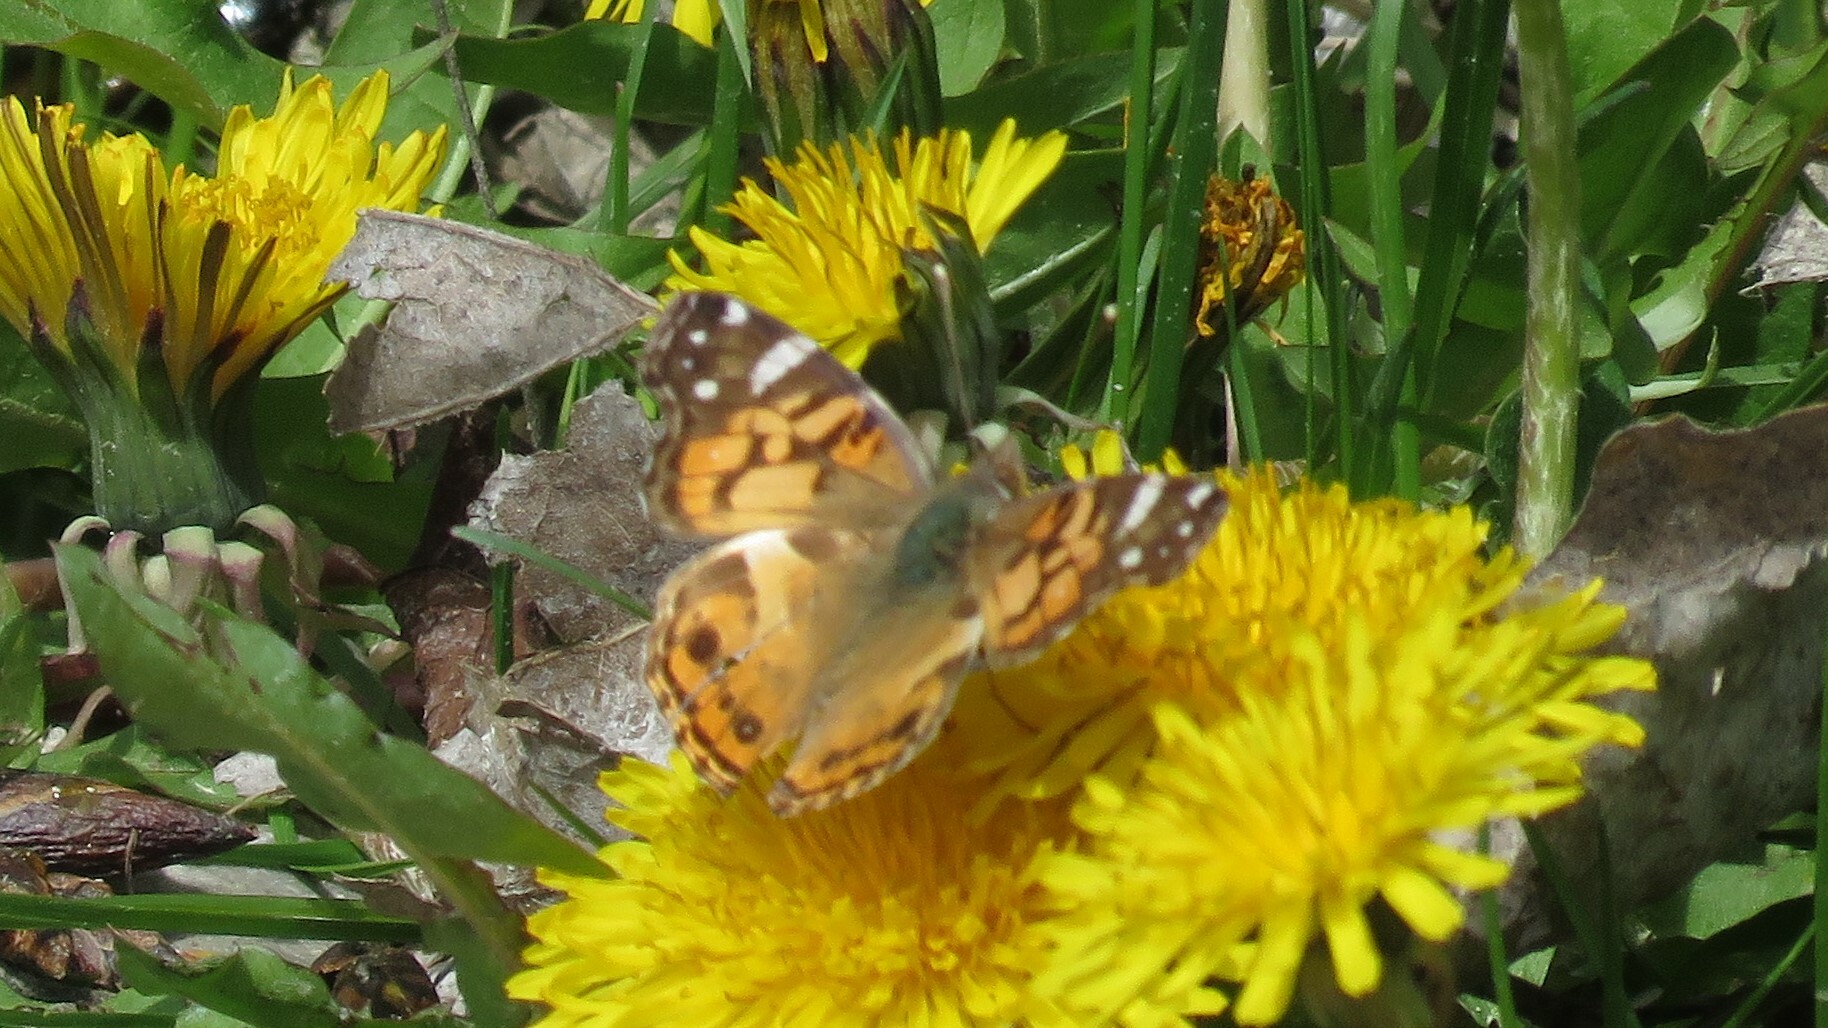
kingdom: Animalia
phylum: Arthropoda
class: Insecta
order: Lepidoptera
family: Nymphalidae
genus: Vanessa
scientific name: Vanessa virginiensis
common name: American lady
